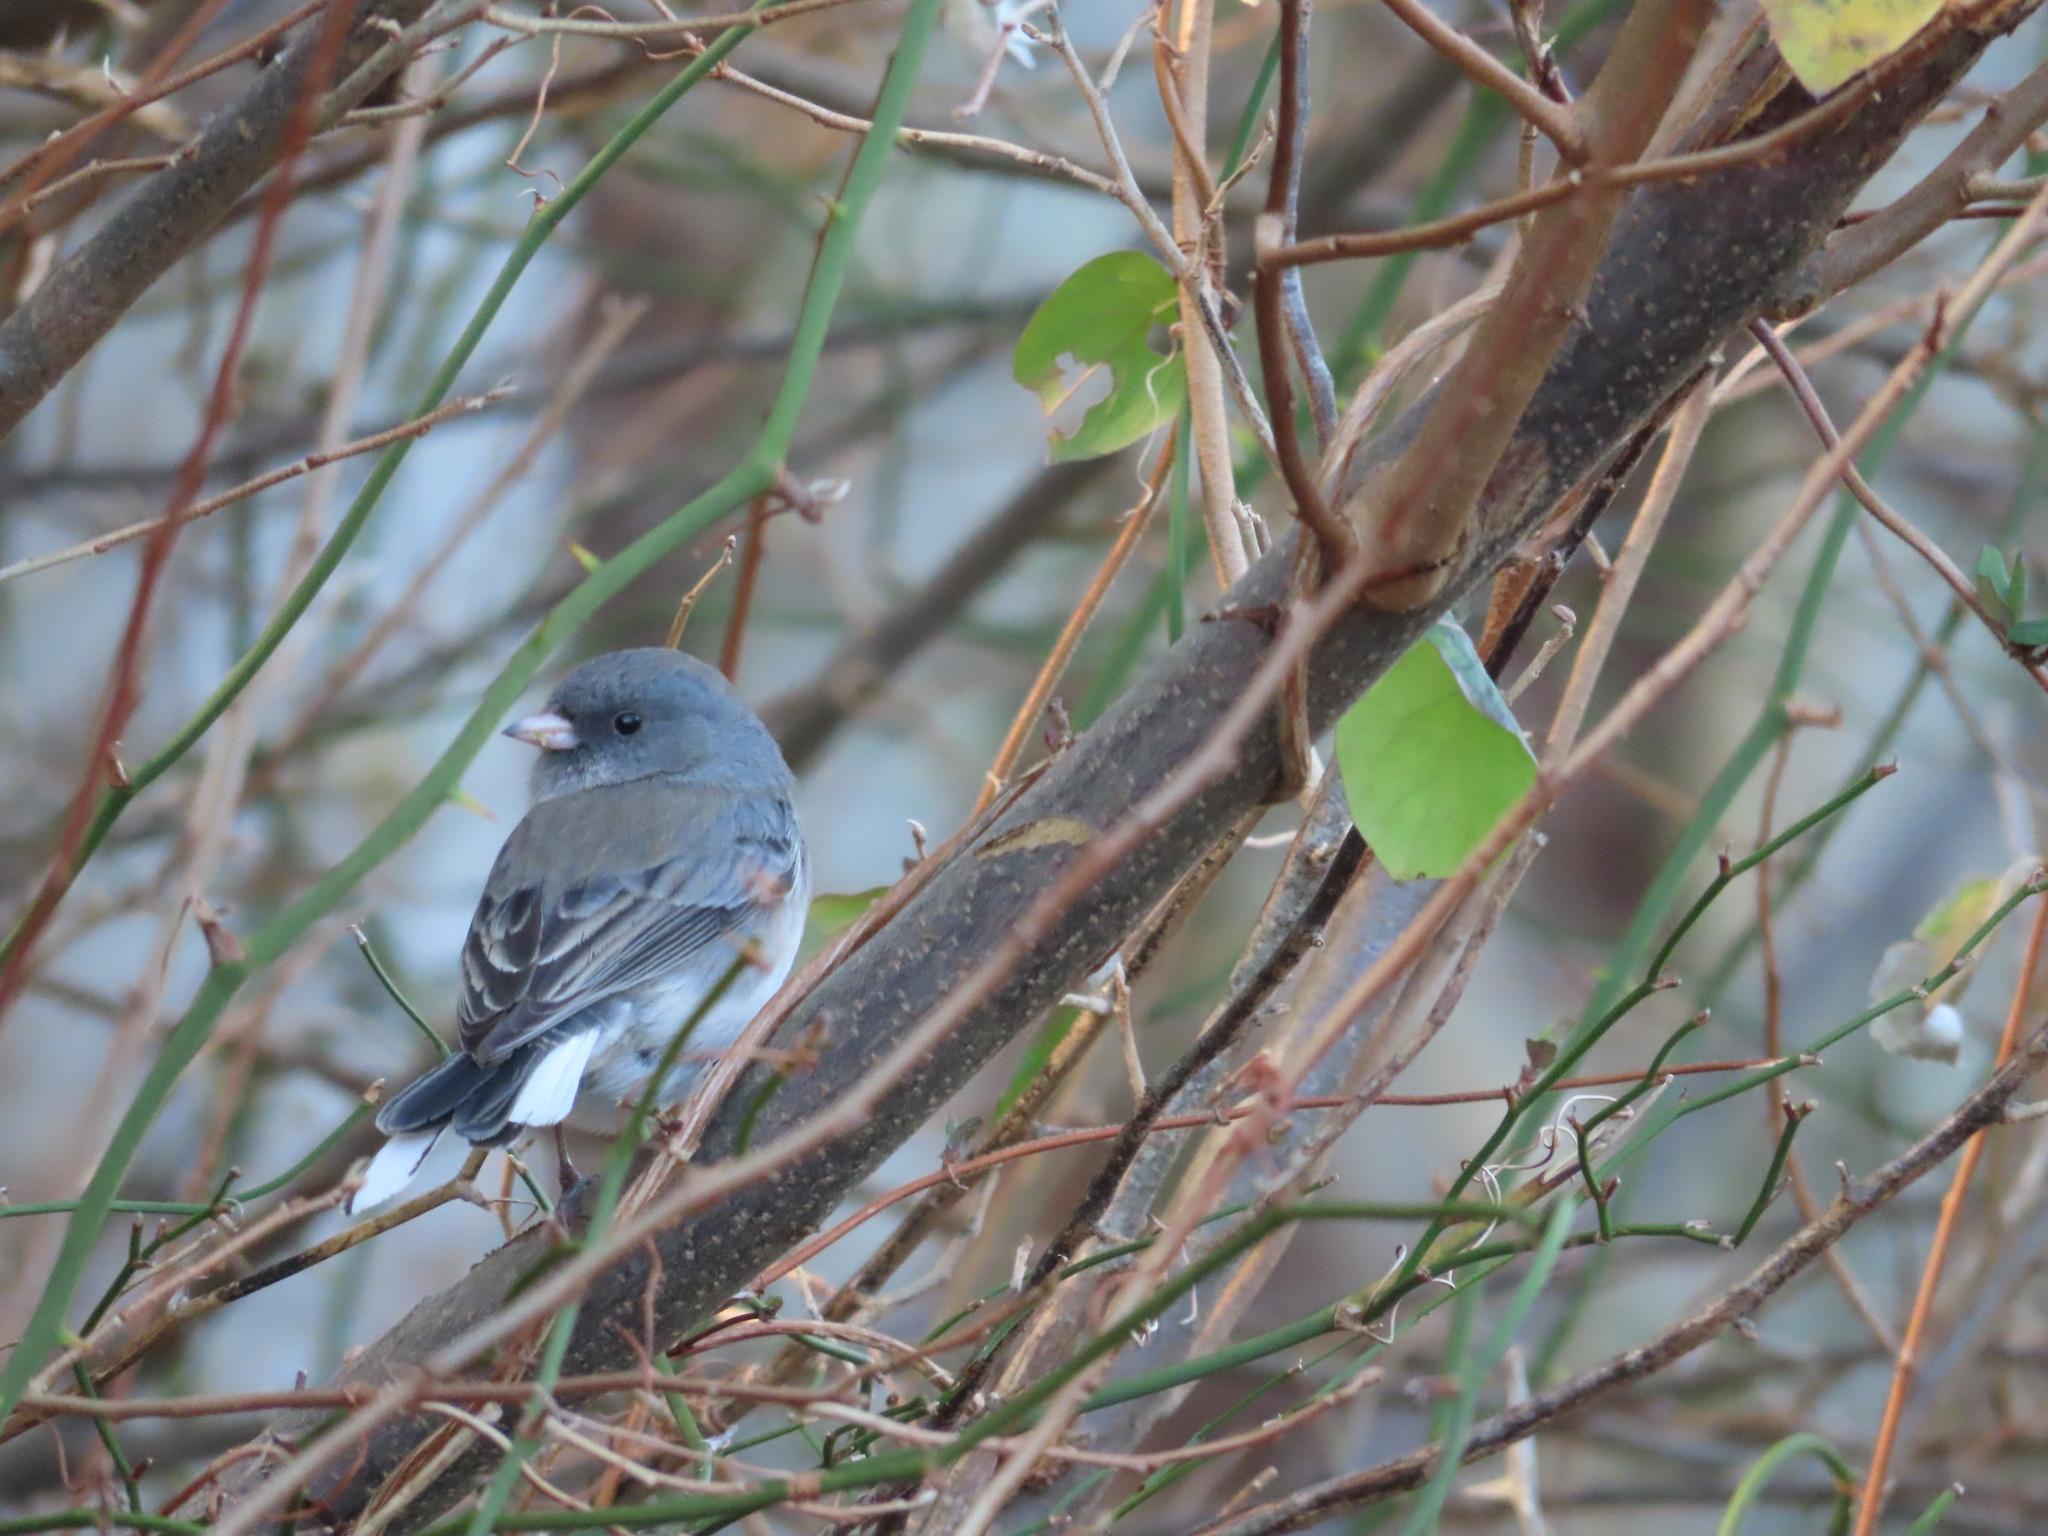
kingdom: Animalia
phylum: Chordata
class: Aves
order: Passeriformes
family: Passerellidae
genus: Junco
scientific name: Junco hyemalis
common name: Dark-eyed junco
